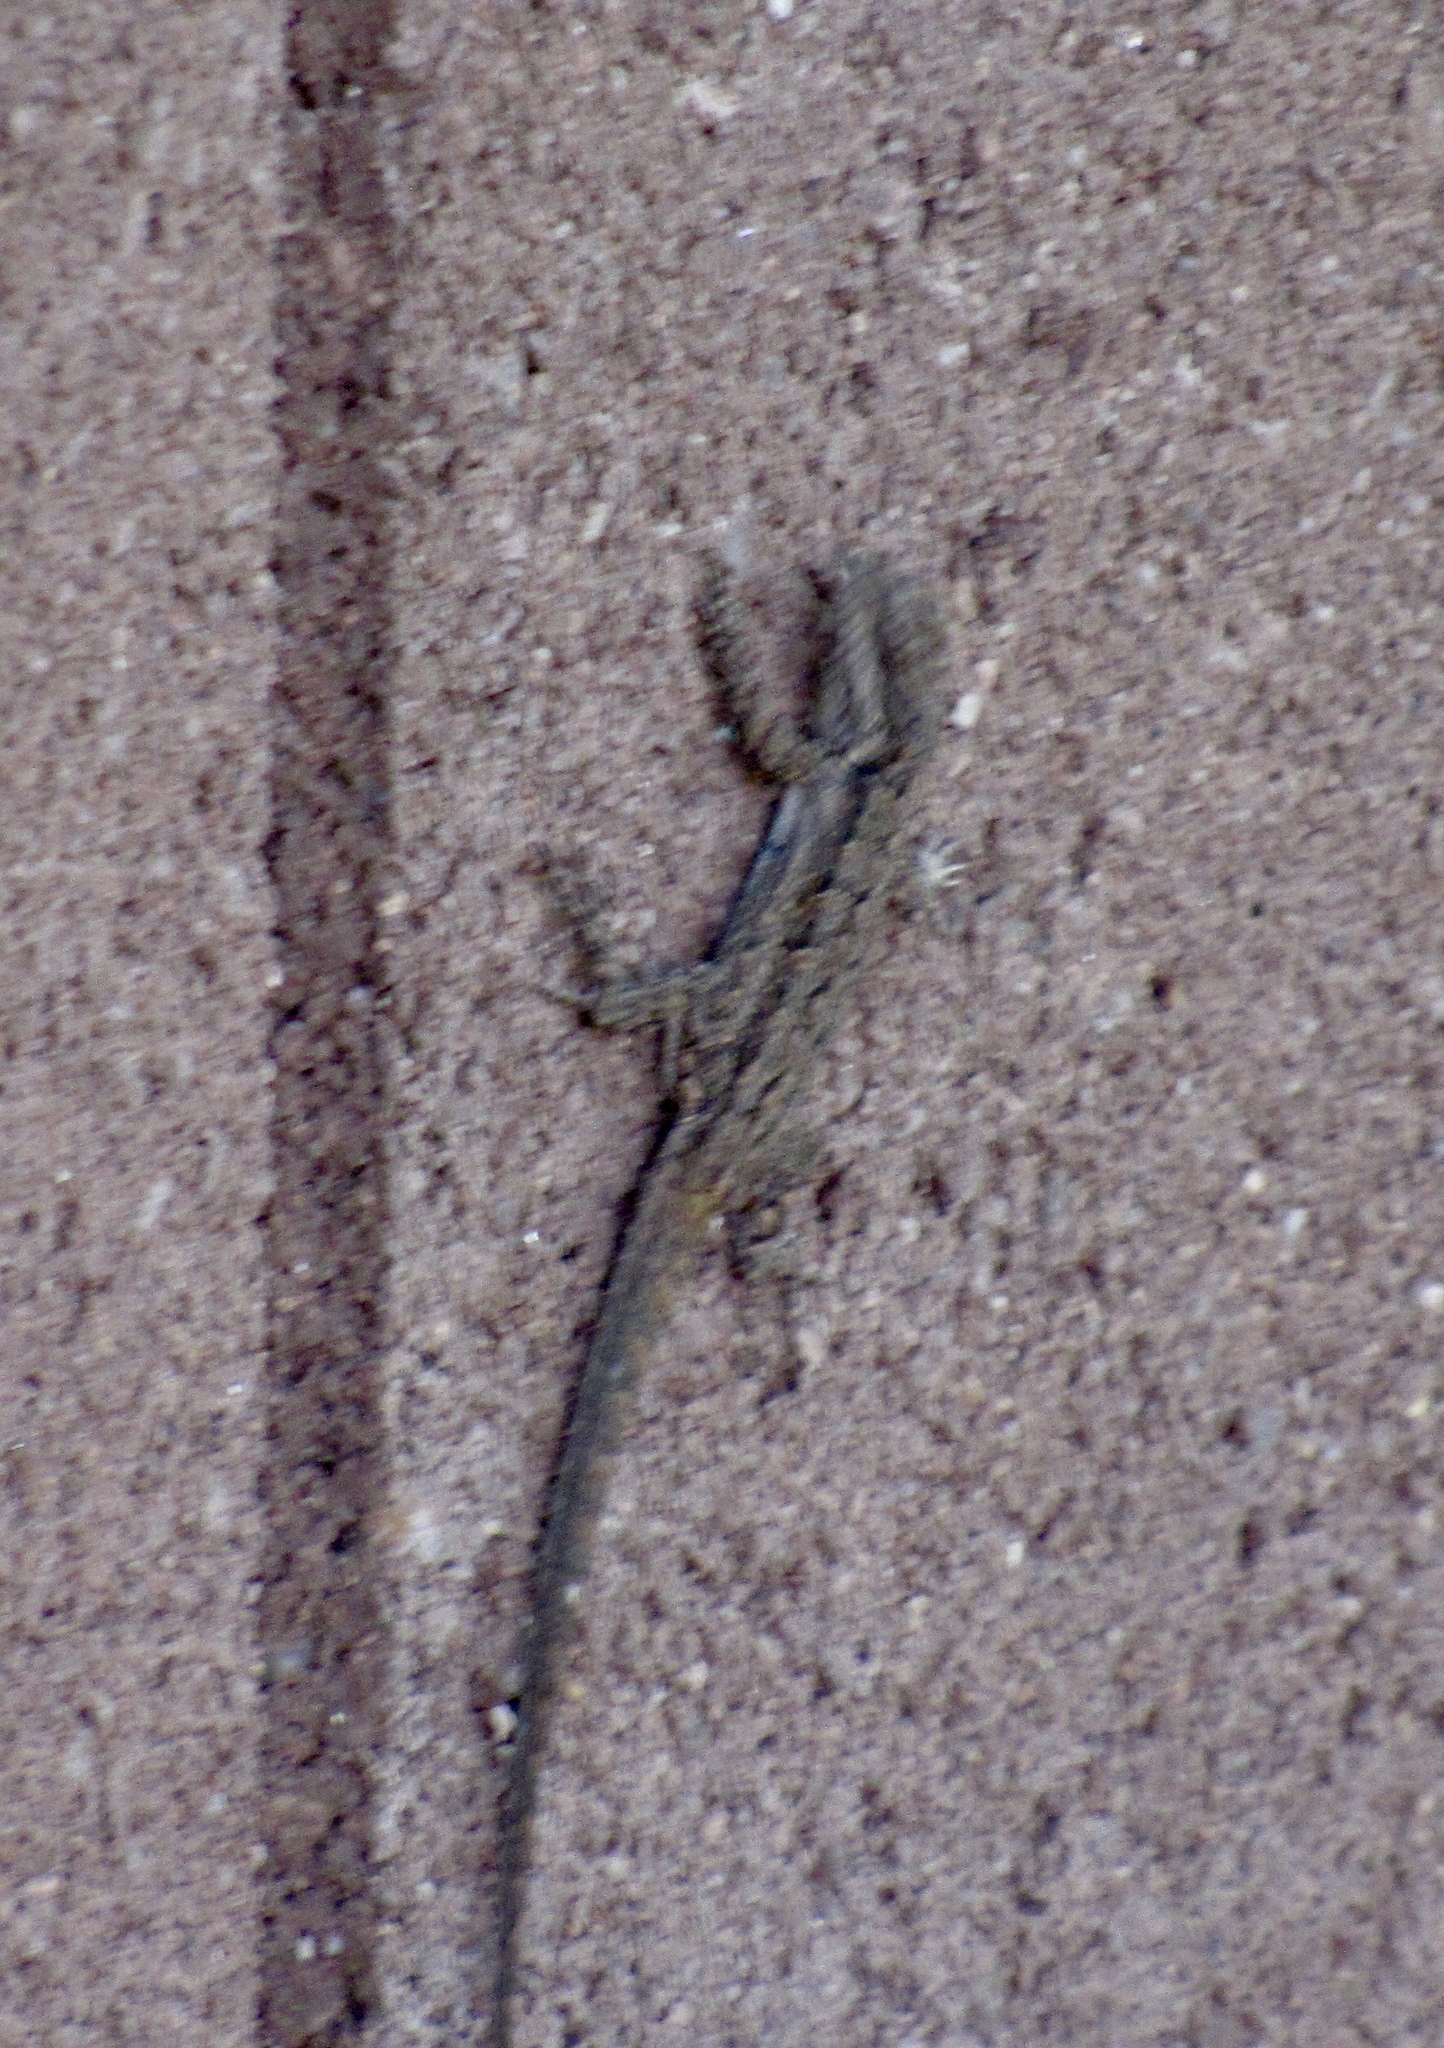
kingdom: Animalia
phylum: Chordata
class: Squamata
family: Phrynosomatidae
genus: Urosaurus
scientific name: Urosaurus ornatus
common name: Ornate tree lizard
